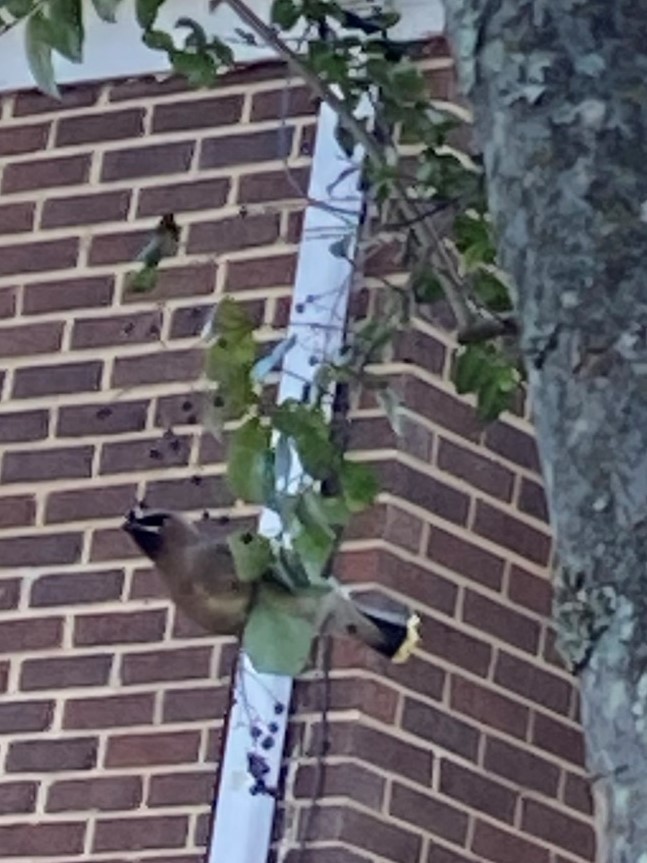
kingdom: Animalia
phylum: Chordata
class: Aves
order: Passeriformes
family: Bombycillidae
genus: Bombycilla
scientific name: Bombycilla cedrorum
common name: Cedar waxwing
